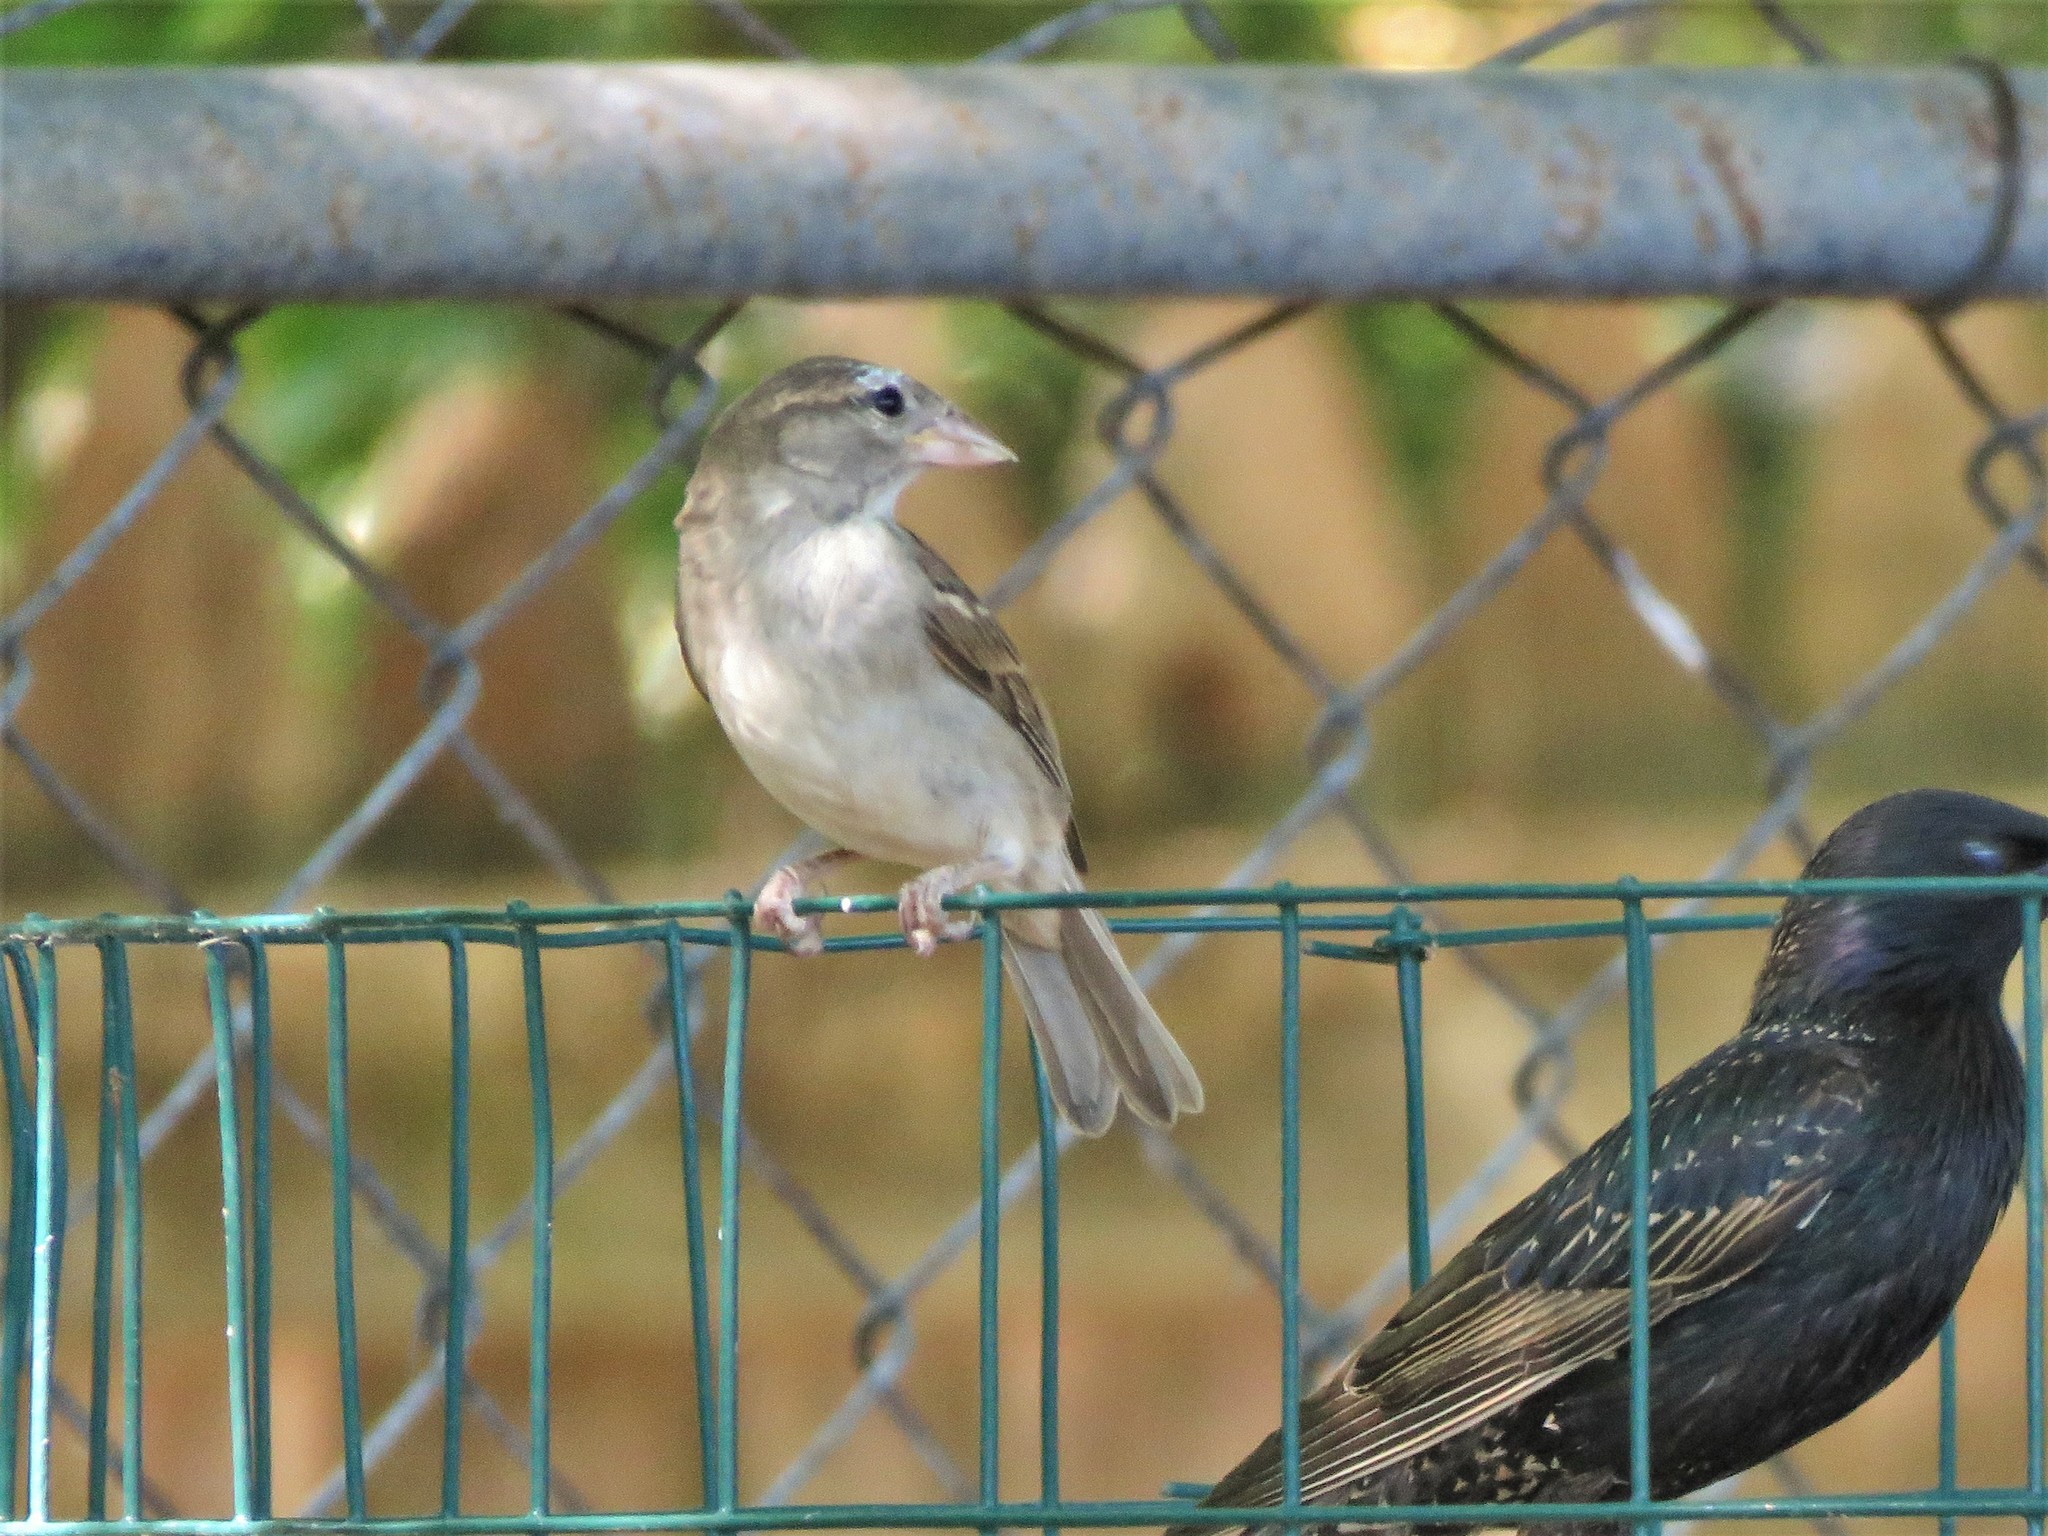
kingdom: Animalia
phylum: Chordata
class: Aves
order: Passeriformes
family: Passeridae
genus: Passer
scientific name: Passer domesticus
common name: House sparrow
